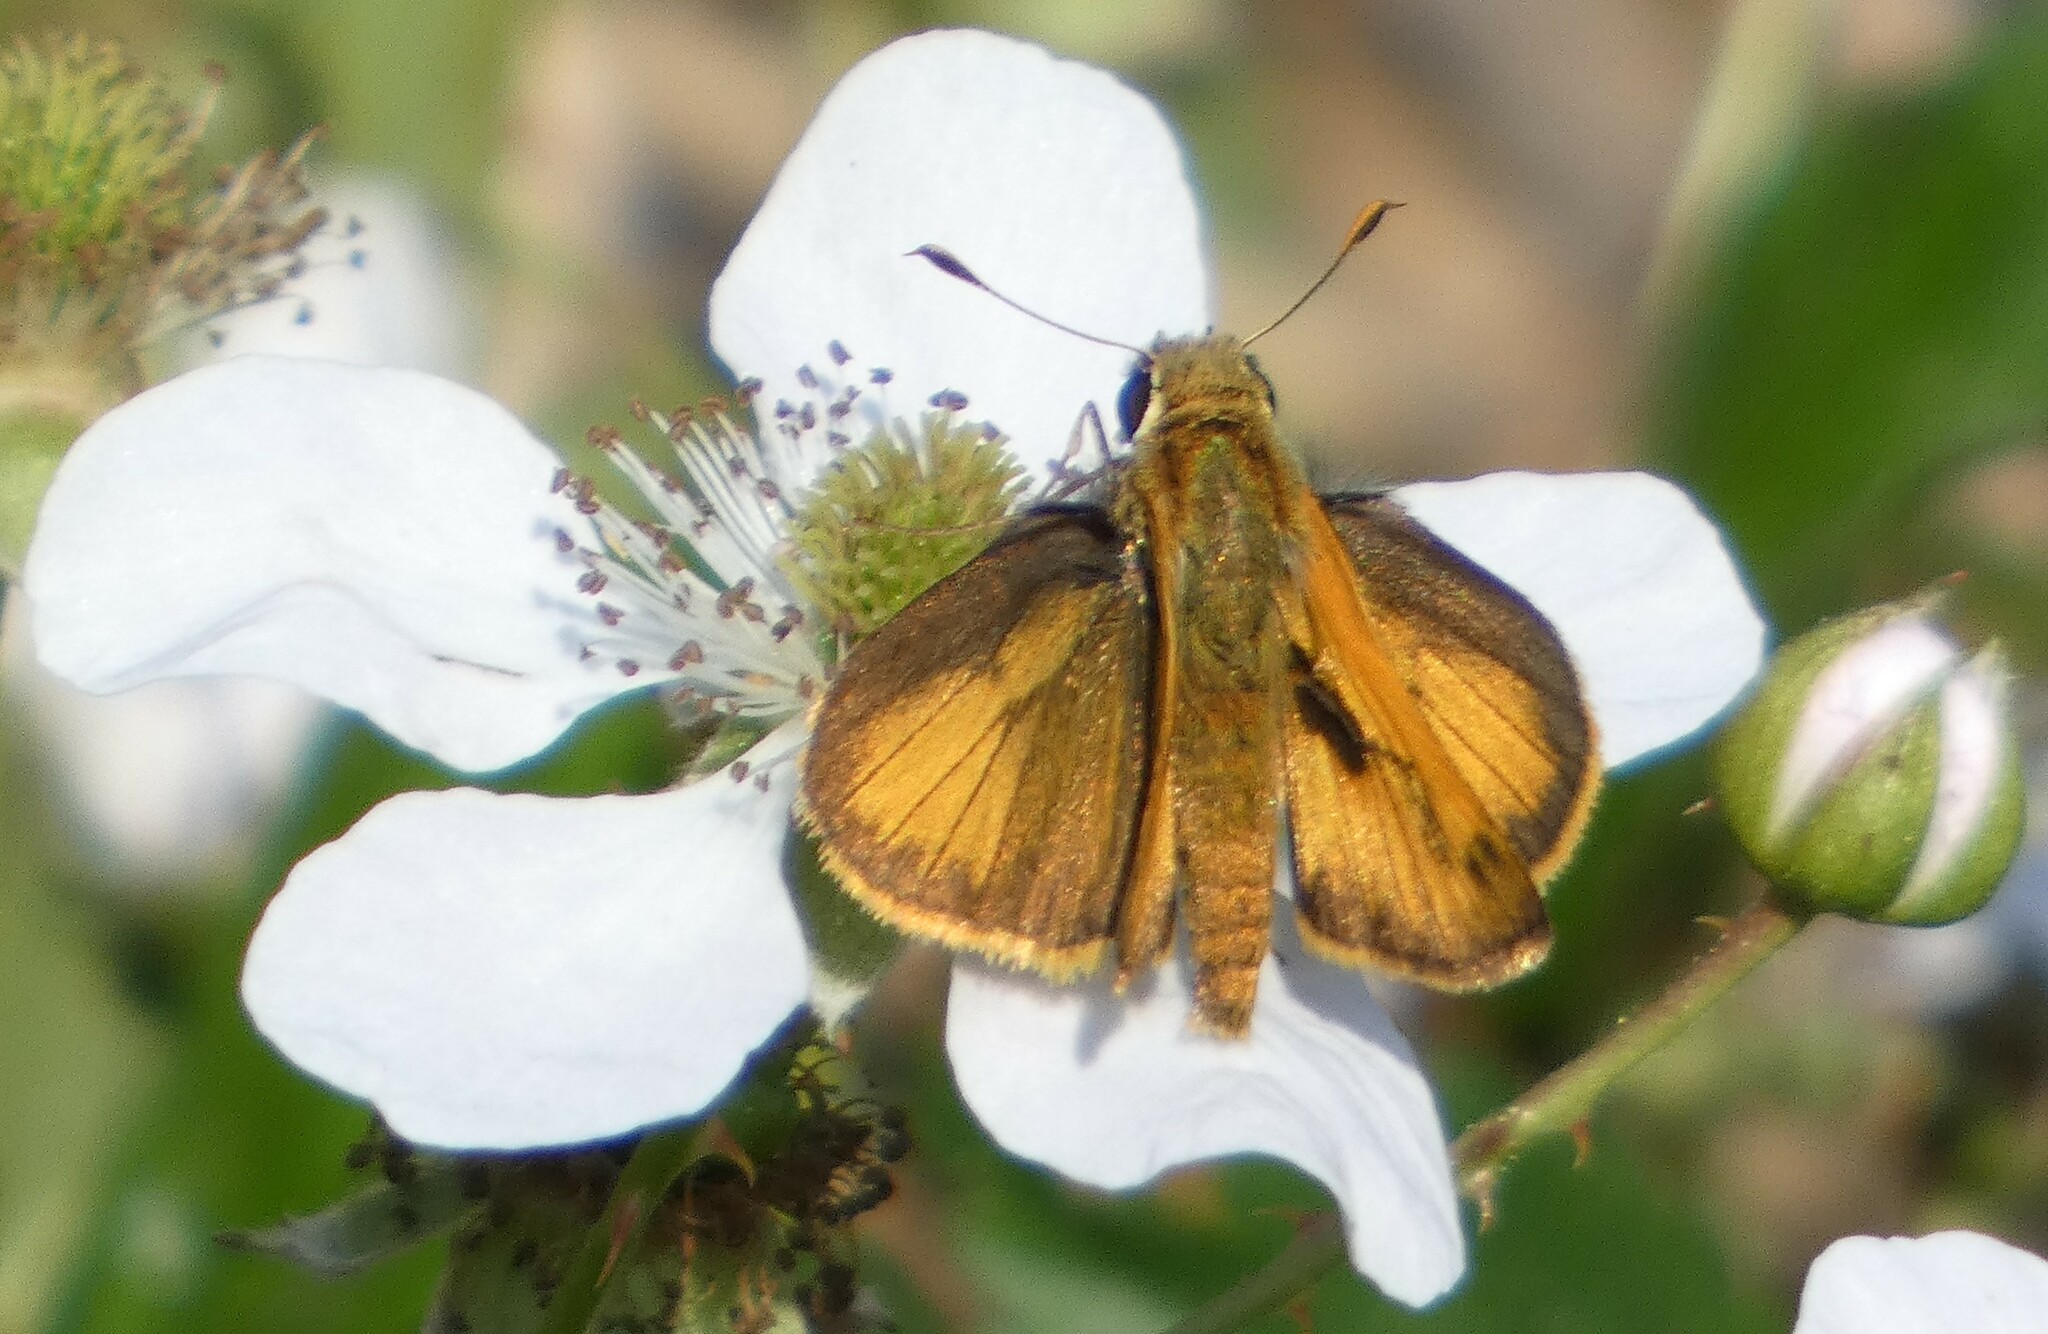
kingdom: Animalia
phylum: Arthropoda
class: Insecta
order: Lepidoptera
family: Hesperiidae
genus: Polites
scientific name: Polites vibex
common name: Whirlabout
